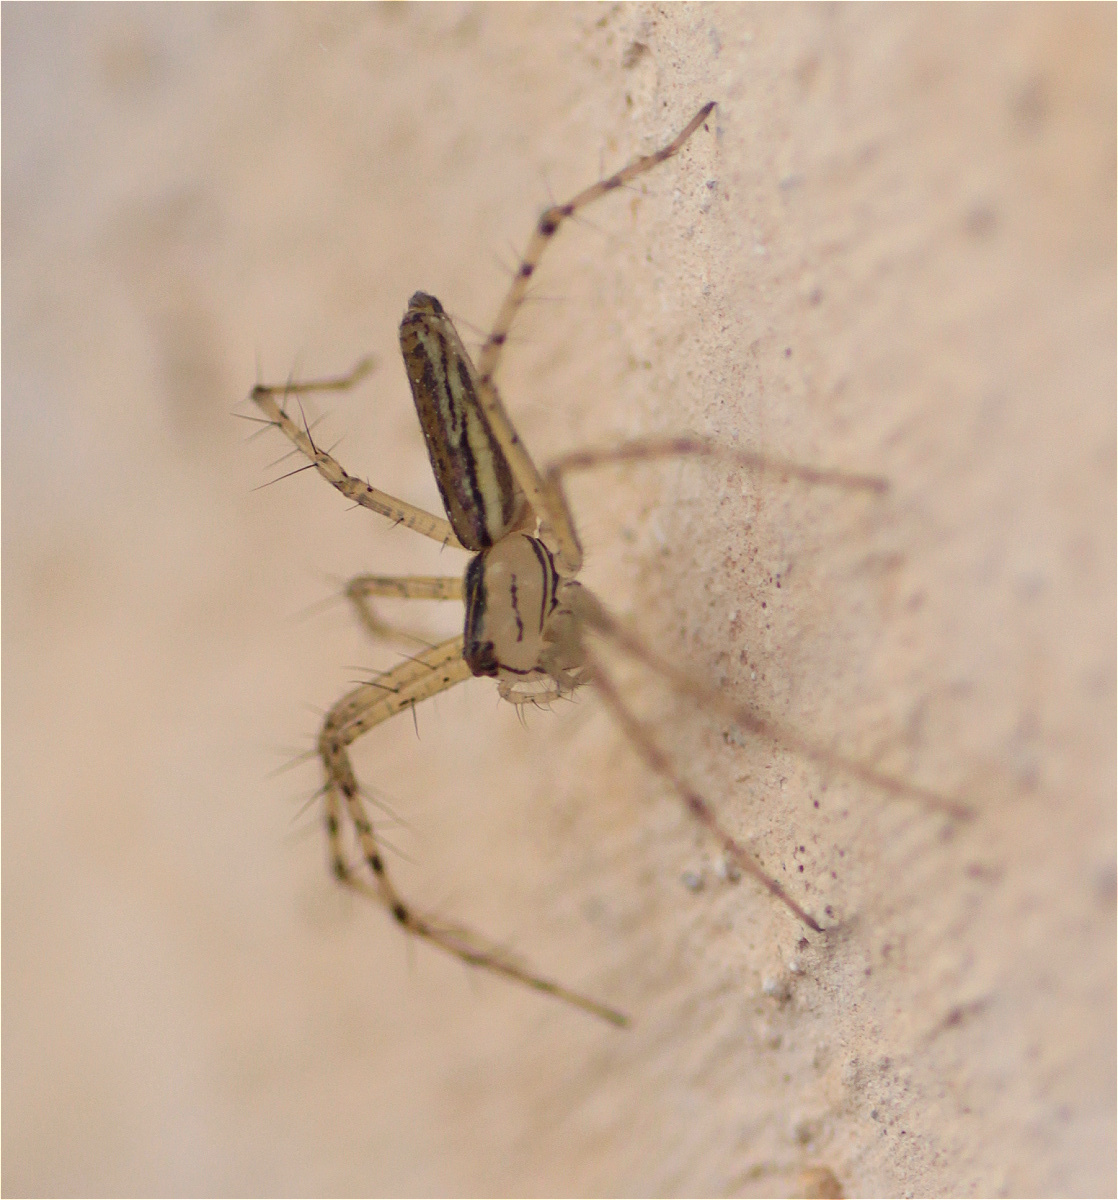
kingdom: Animalia
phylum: Arthropoda
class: Arachnida
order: Araneae
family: Oxyopidae
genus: Peucetia
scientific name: Peucetia rubrolineata
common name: Lynx spiders
